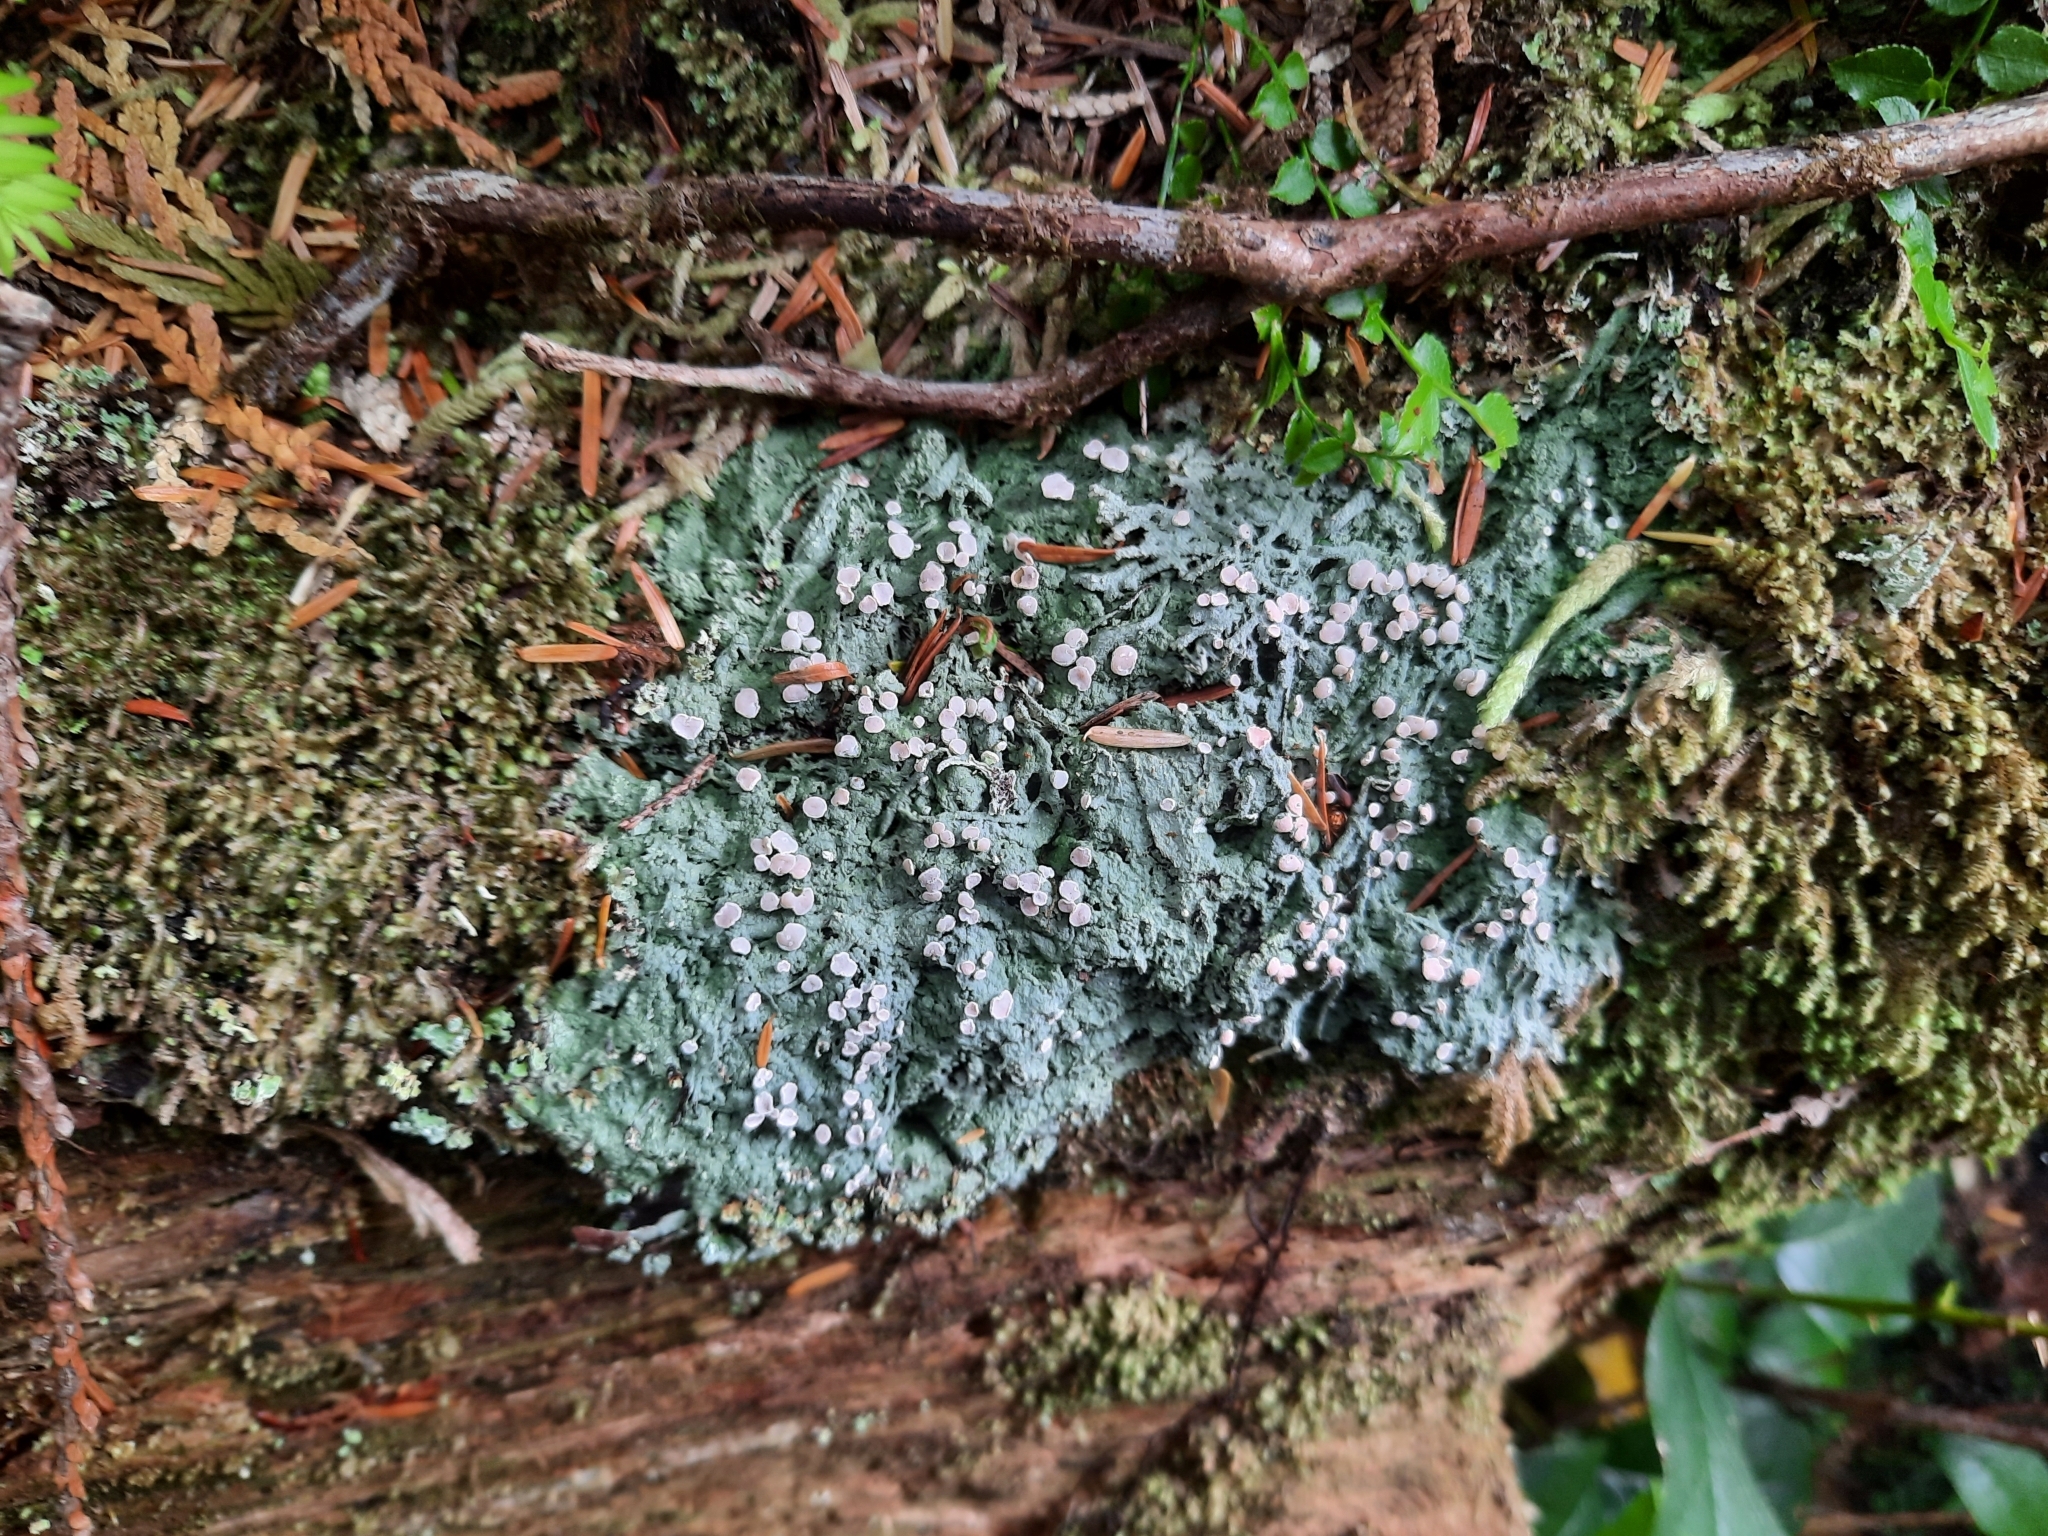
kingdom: Fungi
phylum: Ascomycota
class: Lecanoromycetes
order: Pertusariales
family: Icmadophilaceae
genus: Icmadophila
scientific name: Icmadophila ericetorum
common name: Candy lichen
